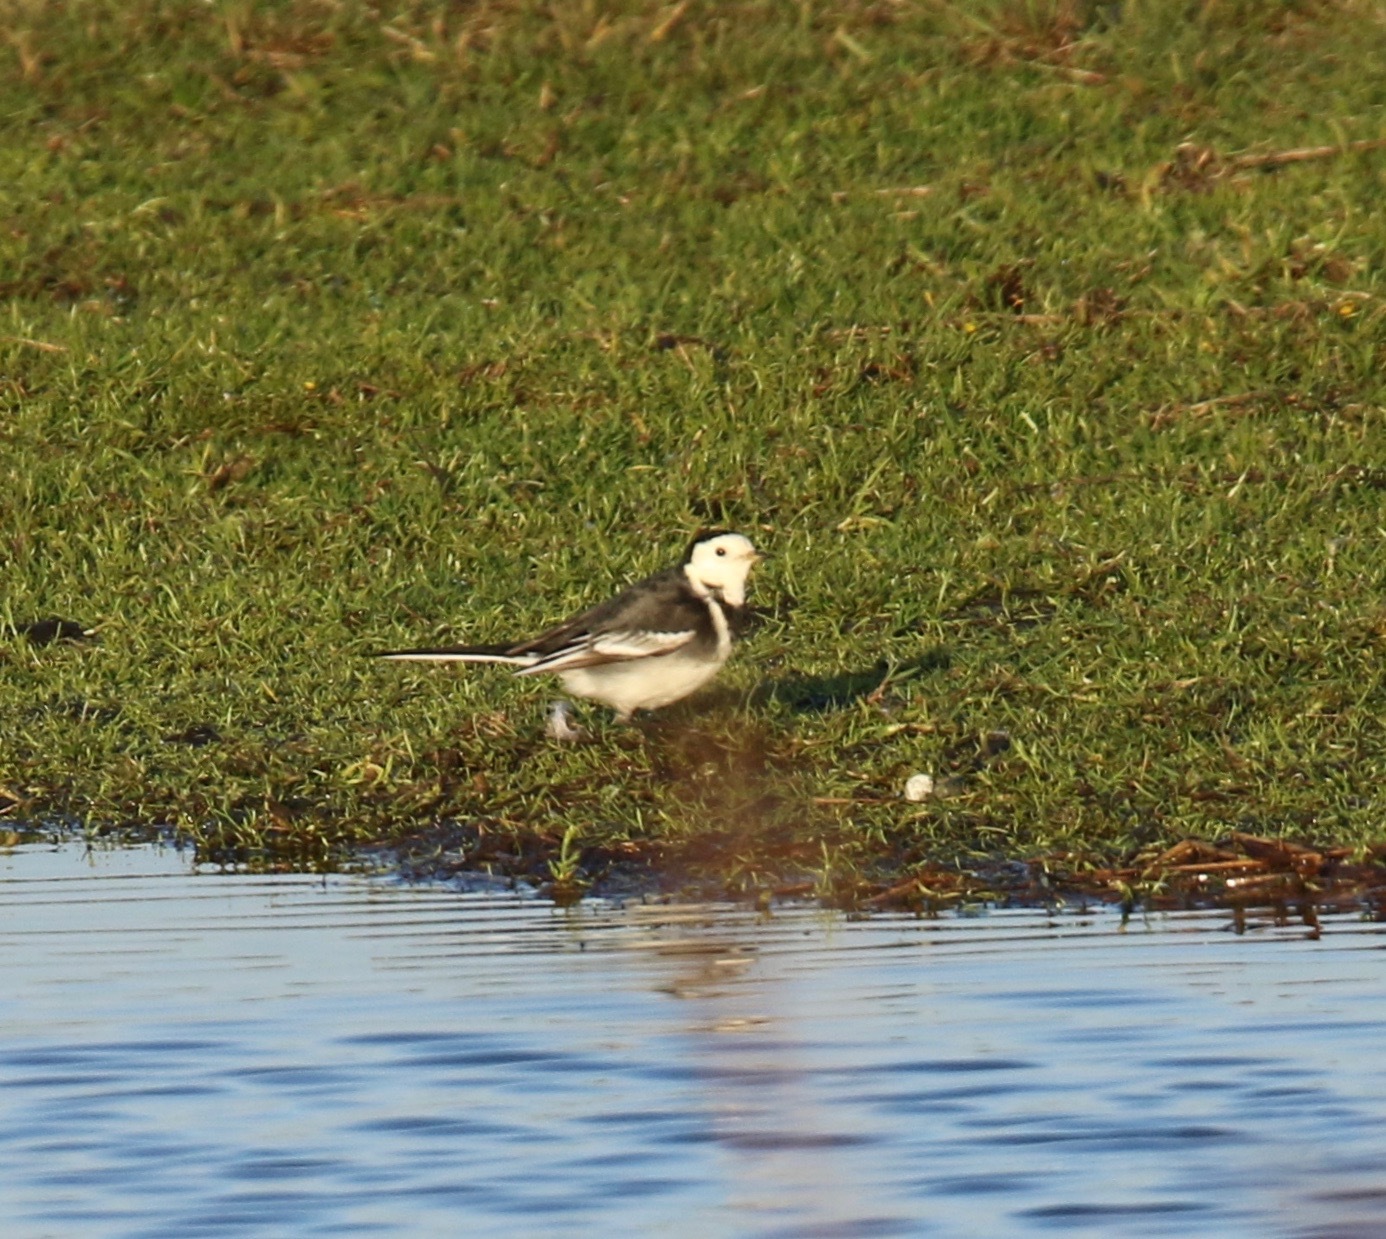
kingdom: Animalia
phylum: Chordata
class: Aves
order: Passeriformes
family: Motacillidae
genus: Motacilla
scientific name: Motacilla alba
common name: White wagtail
